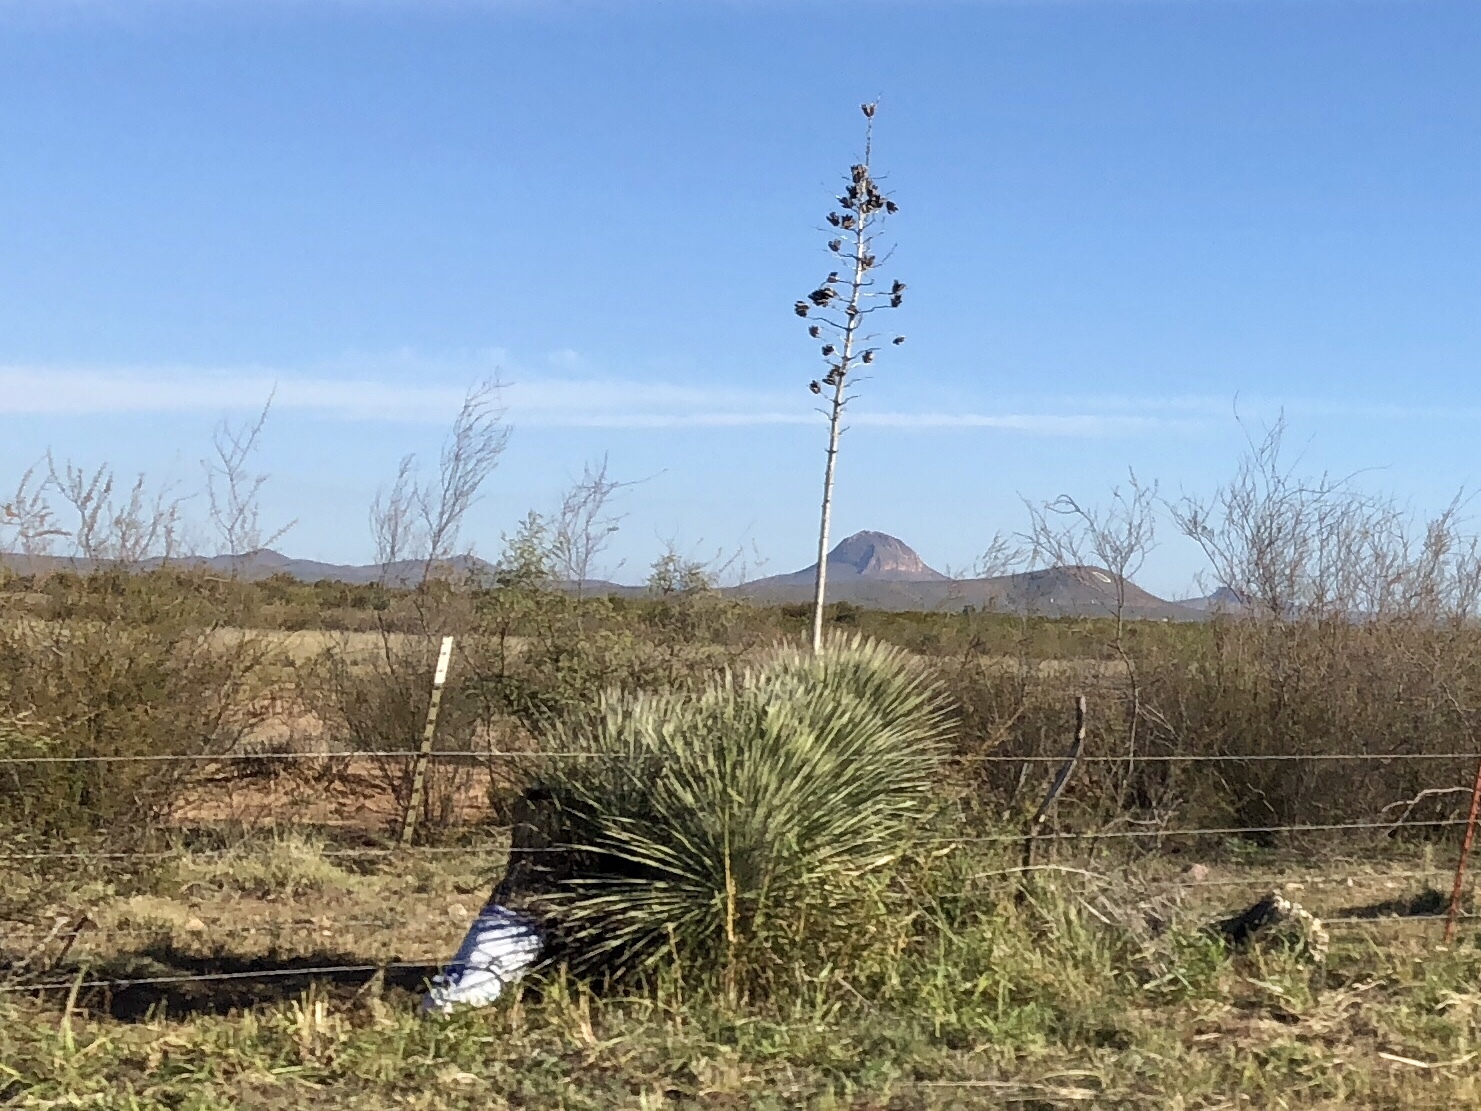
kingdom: Plantae
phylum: Tracheophyta
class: Liliopsida
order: Asparagales
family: Asparagaceae
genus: Yucca
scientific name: Yucca elata
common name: Palmella
